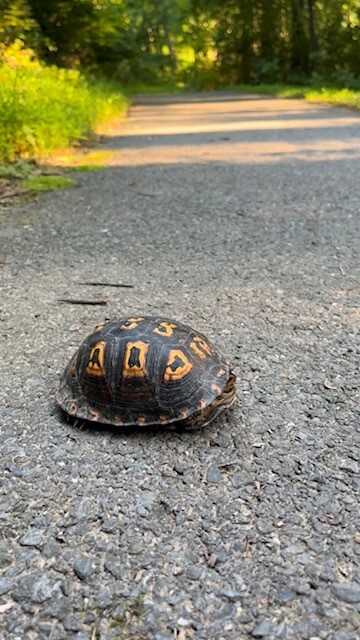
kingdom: Animalia
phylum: Chordata
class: Testudines
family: Emydidae
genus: Terrapene
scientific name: Terrapene carolina
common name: Common box turtle
